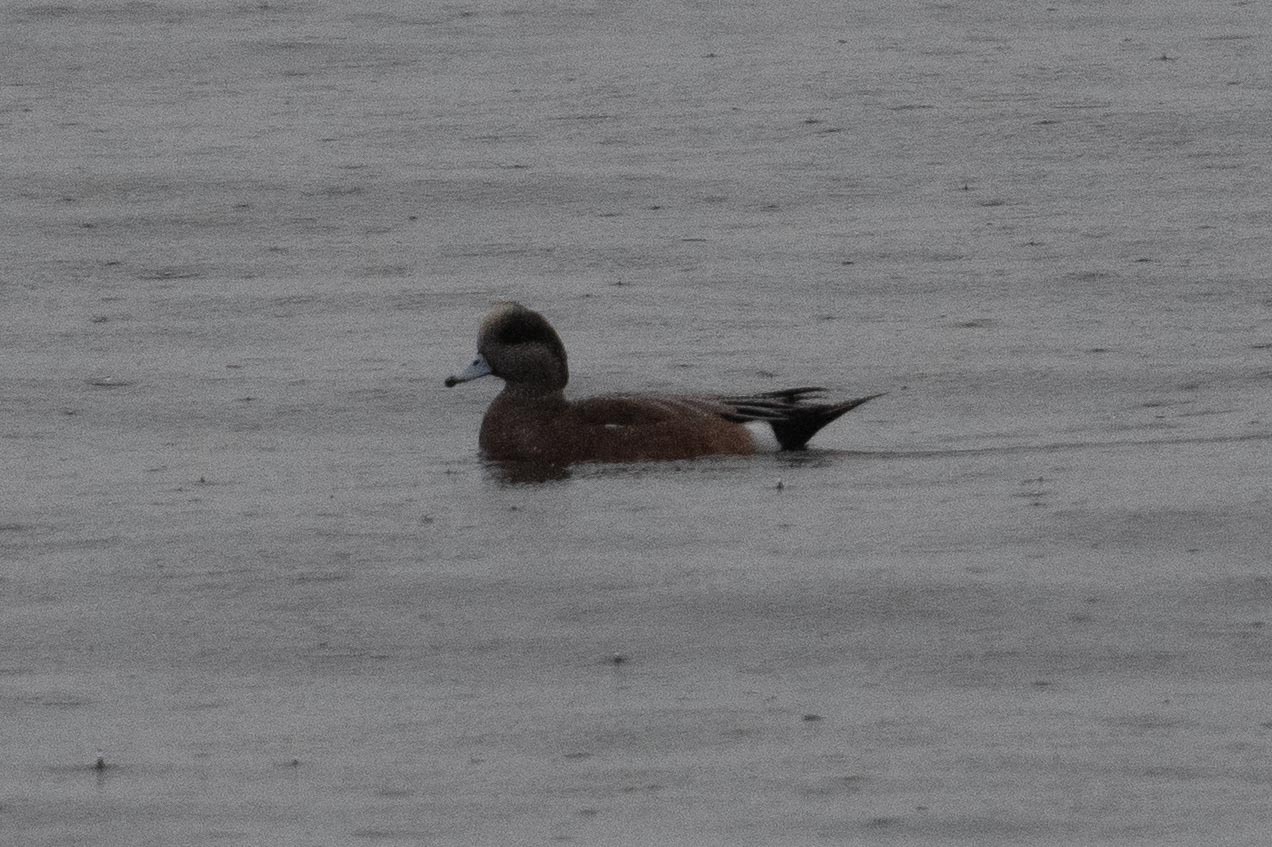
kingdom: Animalia
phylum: Chordata
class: Aves
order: Anseriformes
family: Anatidae
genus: Mareca
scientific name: Mareca americana
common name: American wigeon
